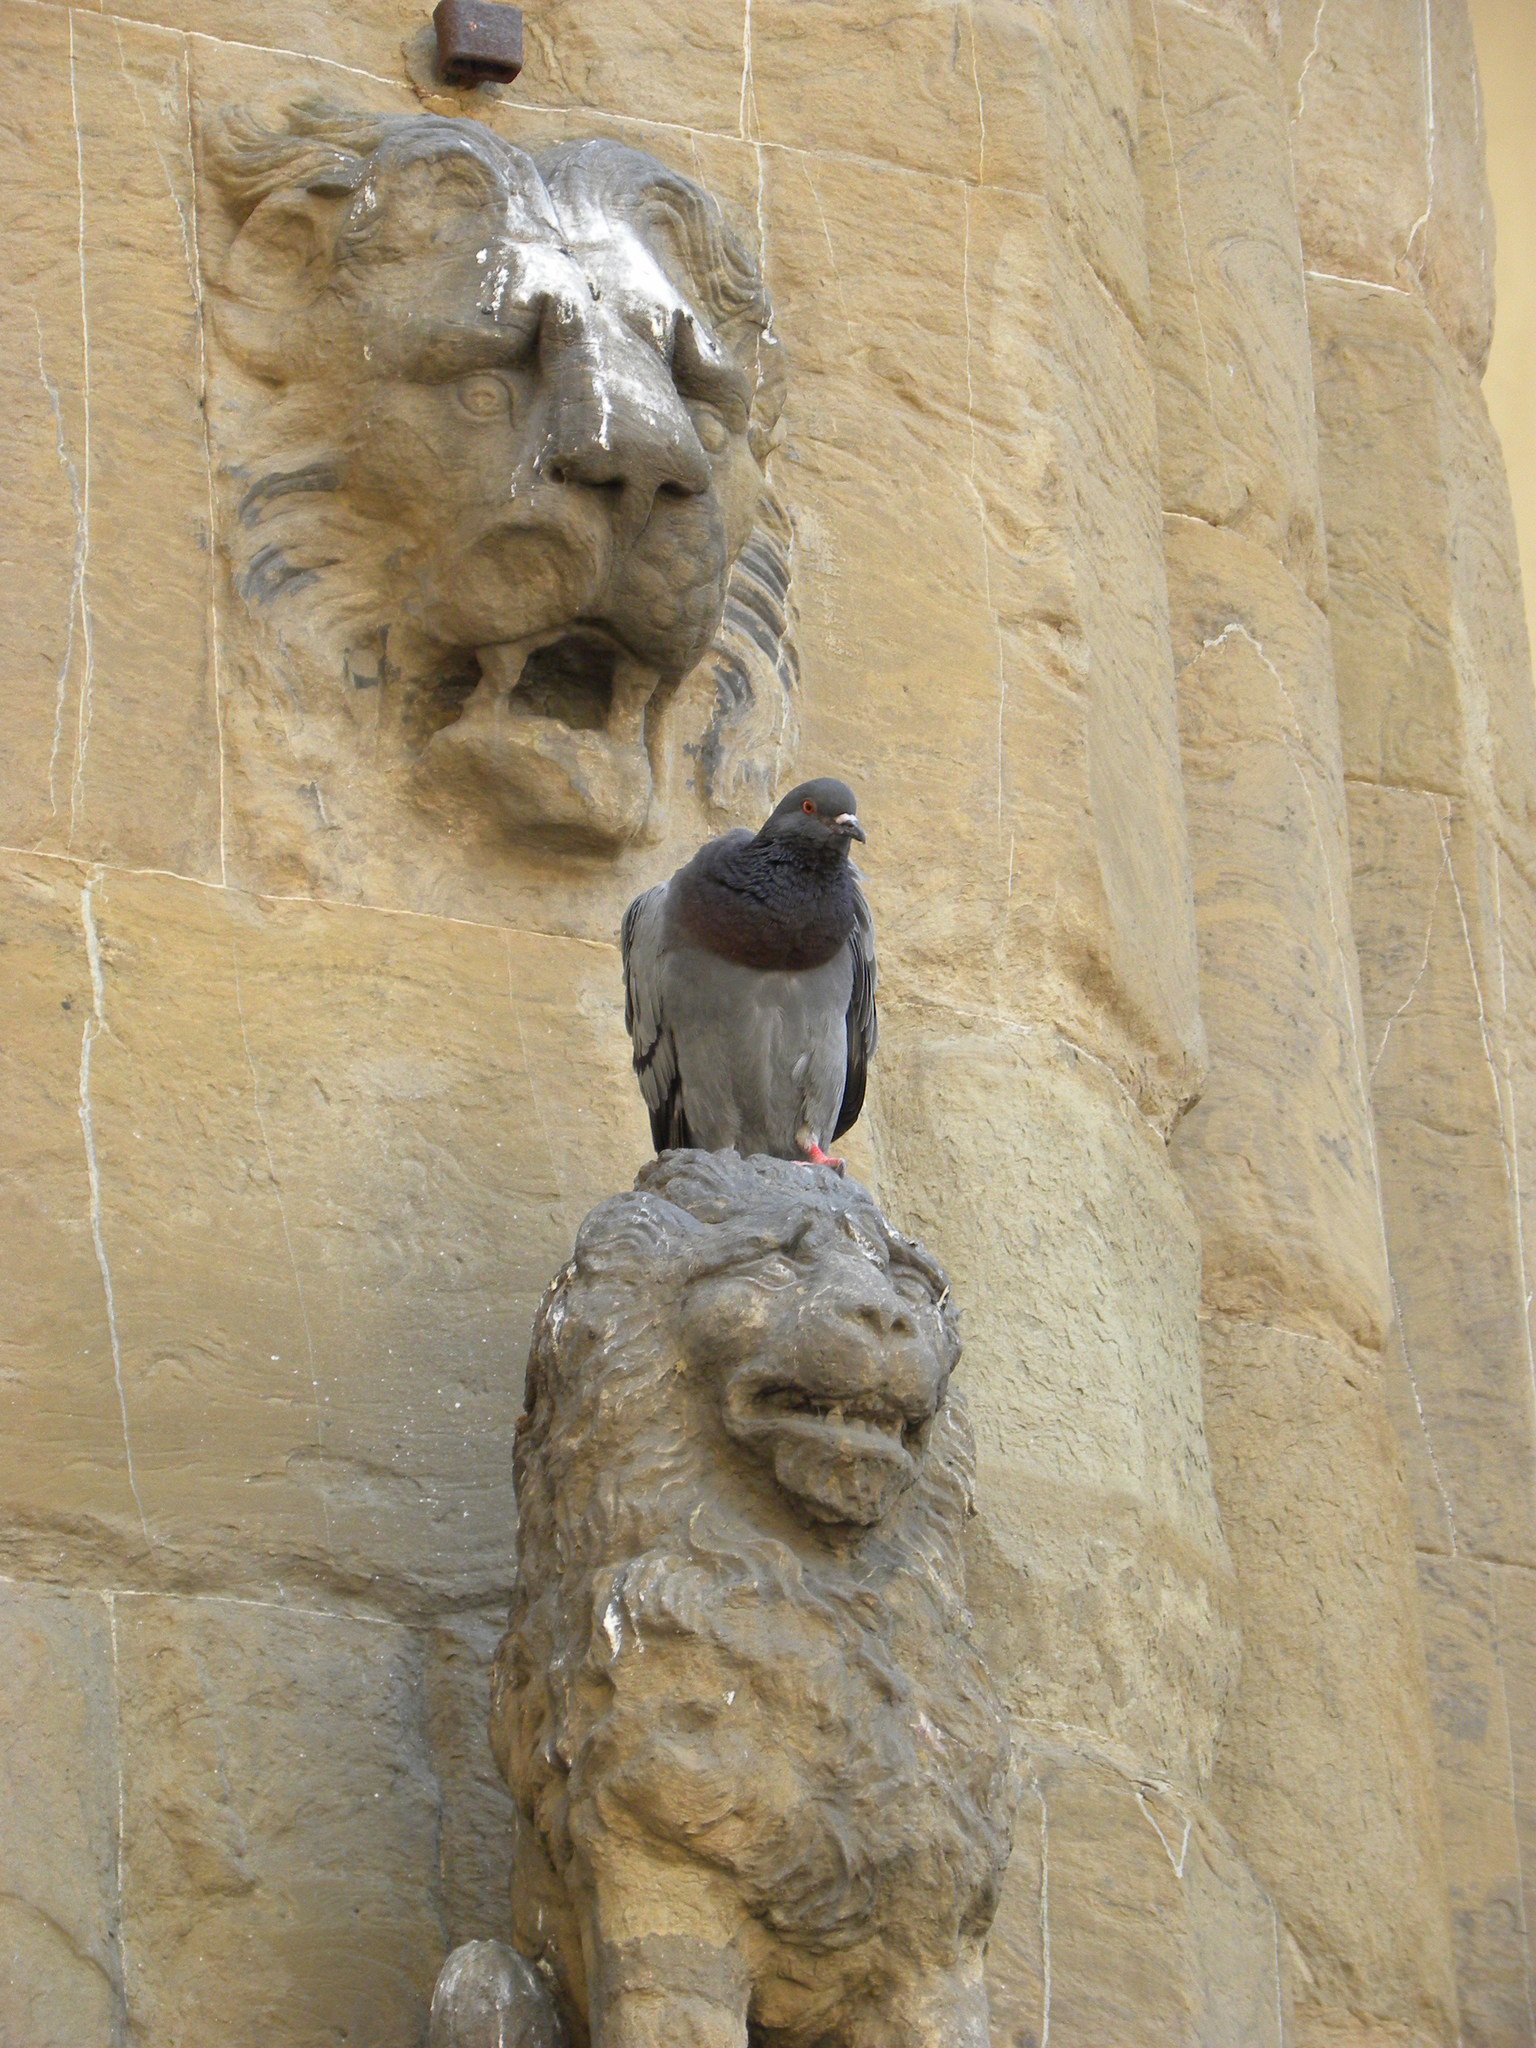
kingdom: Animalia
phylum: Chordata
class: Aves
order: Columbiformes
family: Columbidae
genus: Columba
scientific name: Columba livia
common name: Rock pigeon
